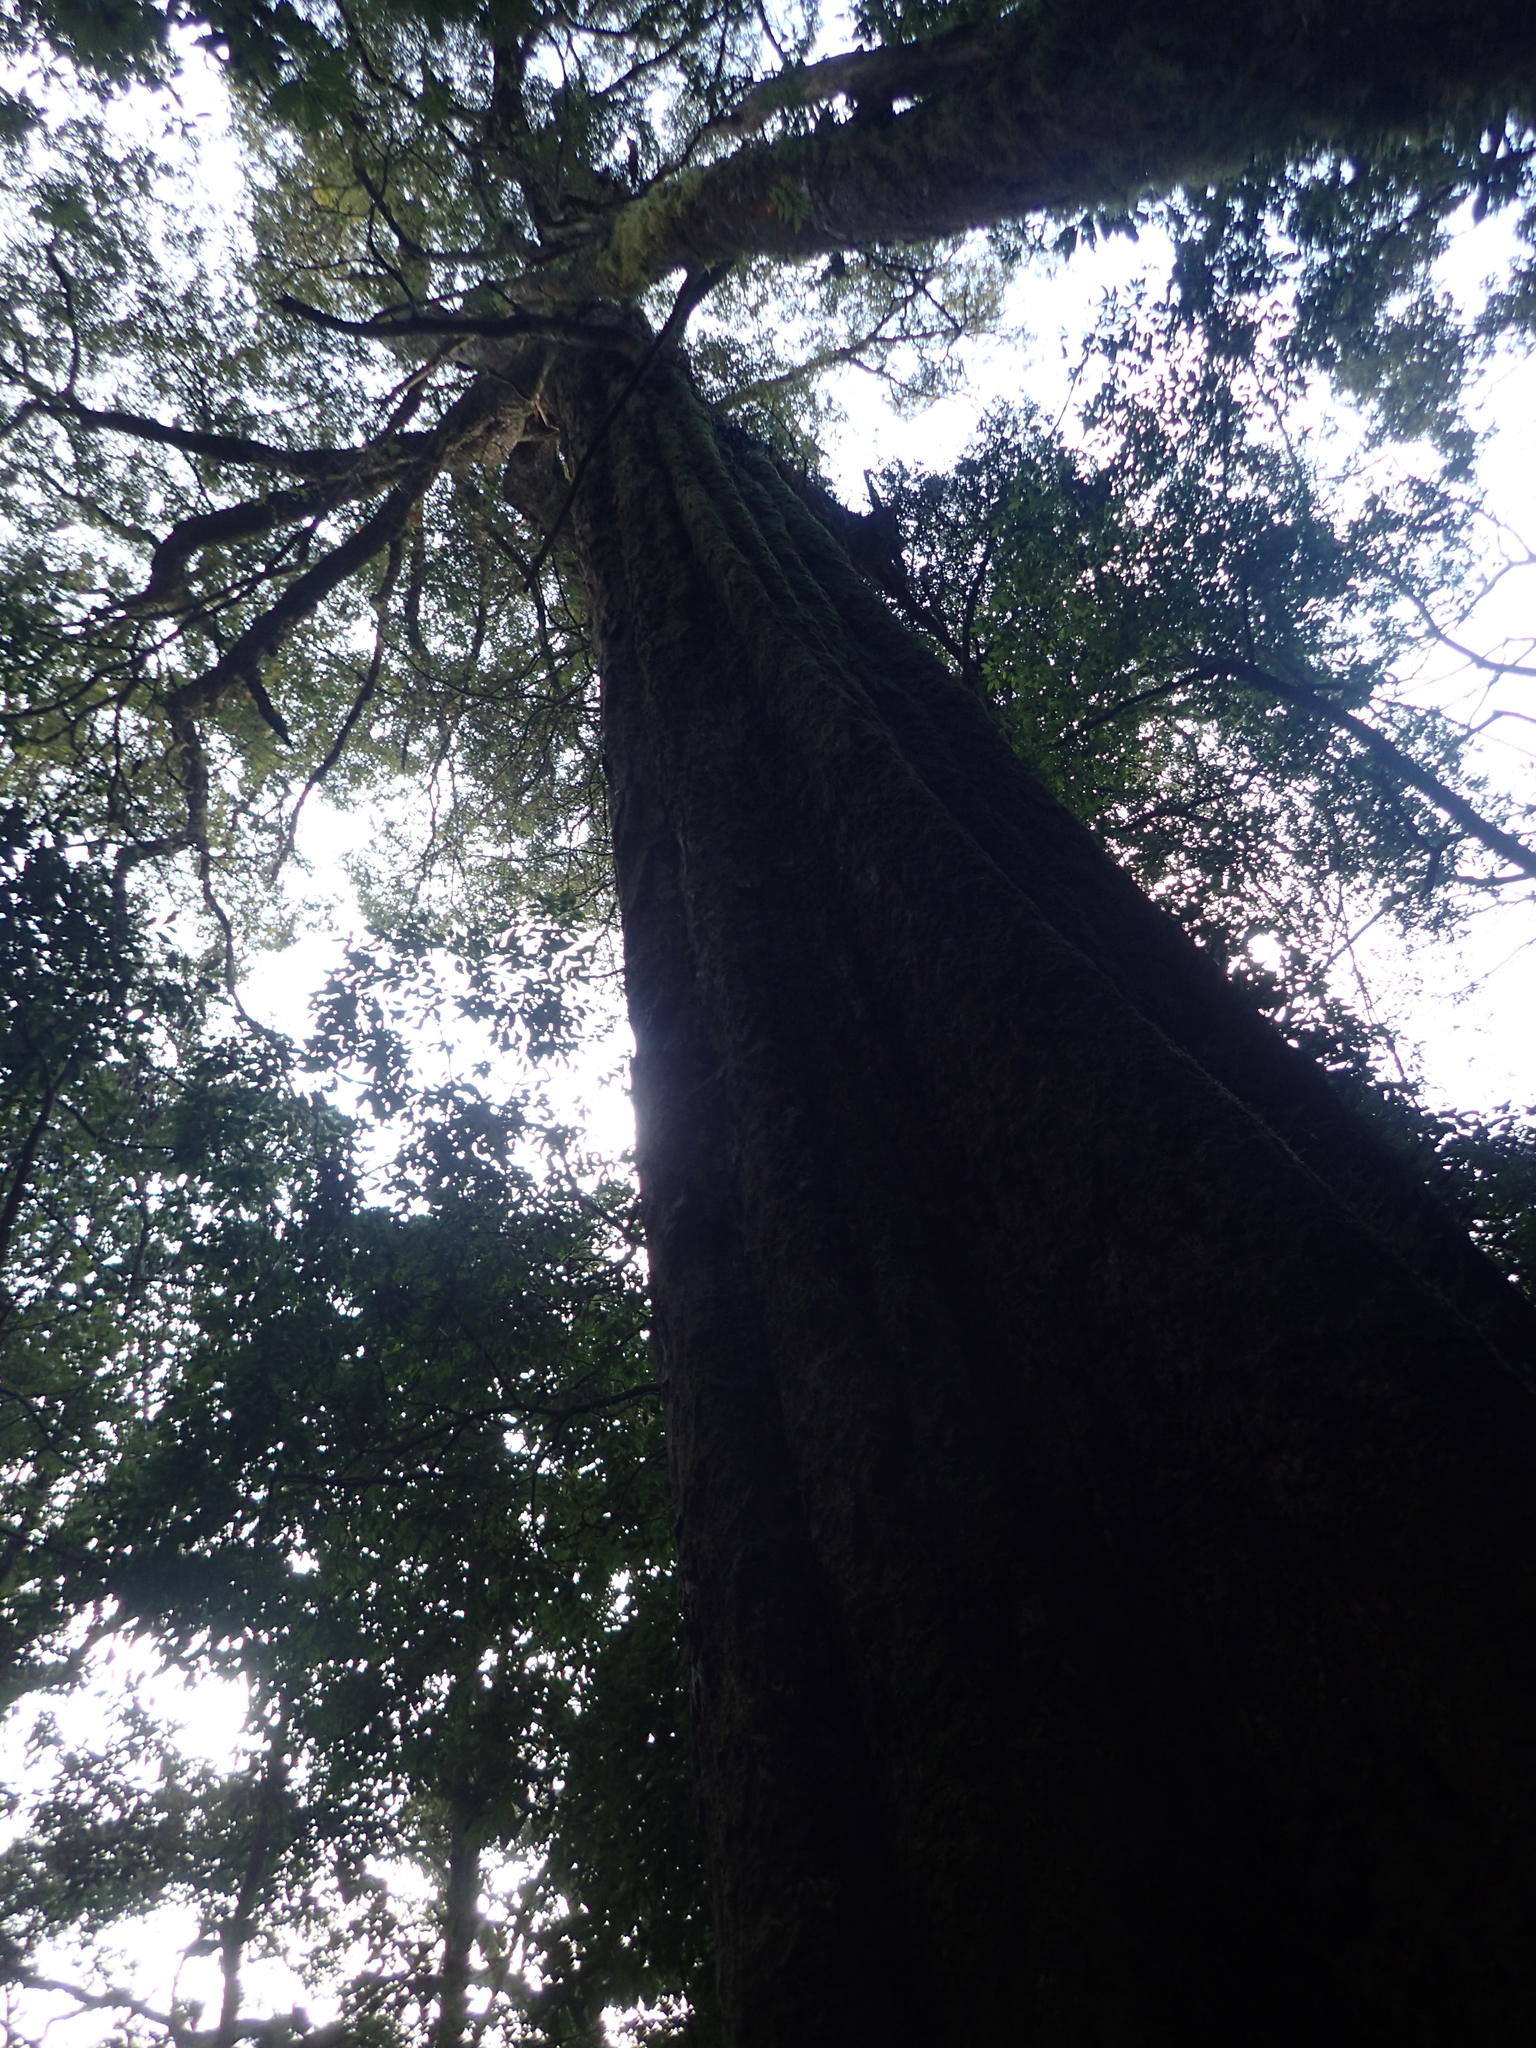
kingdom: Plantae
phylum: Tracheophyta
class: Magnoliopsida
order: Fagales
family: Fagaceae
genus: Castanopsis
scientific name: Castanopsis carlesii
